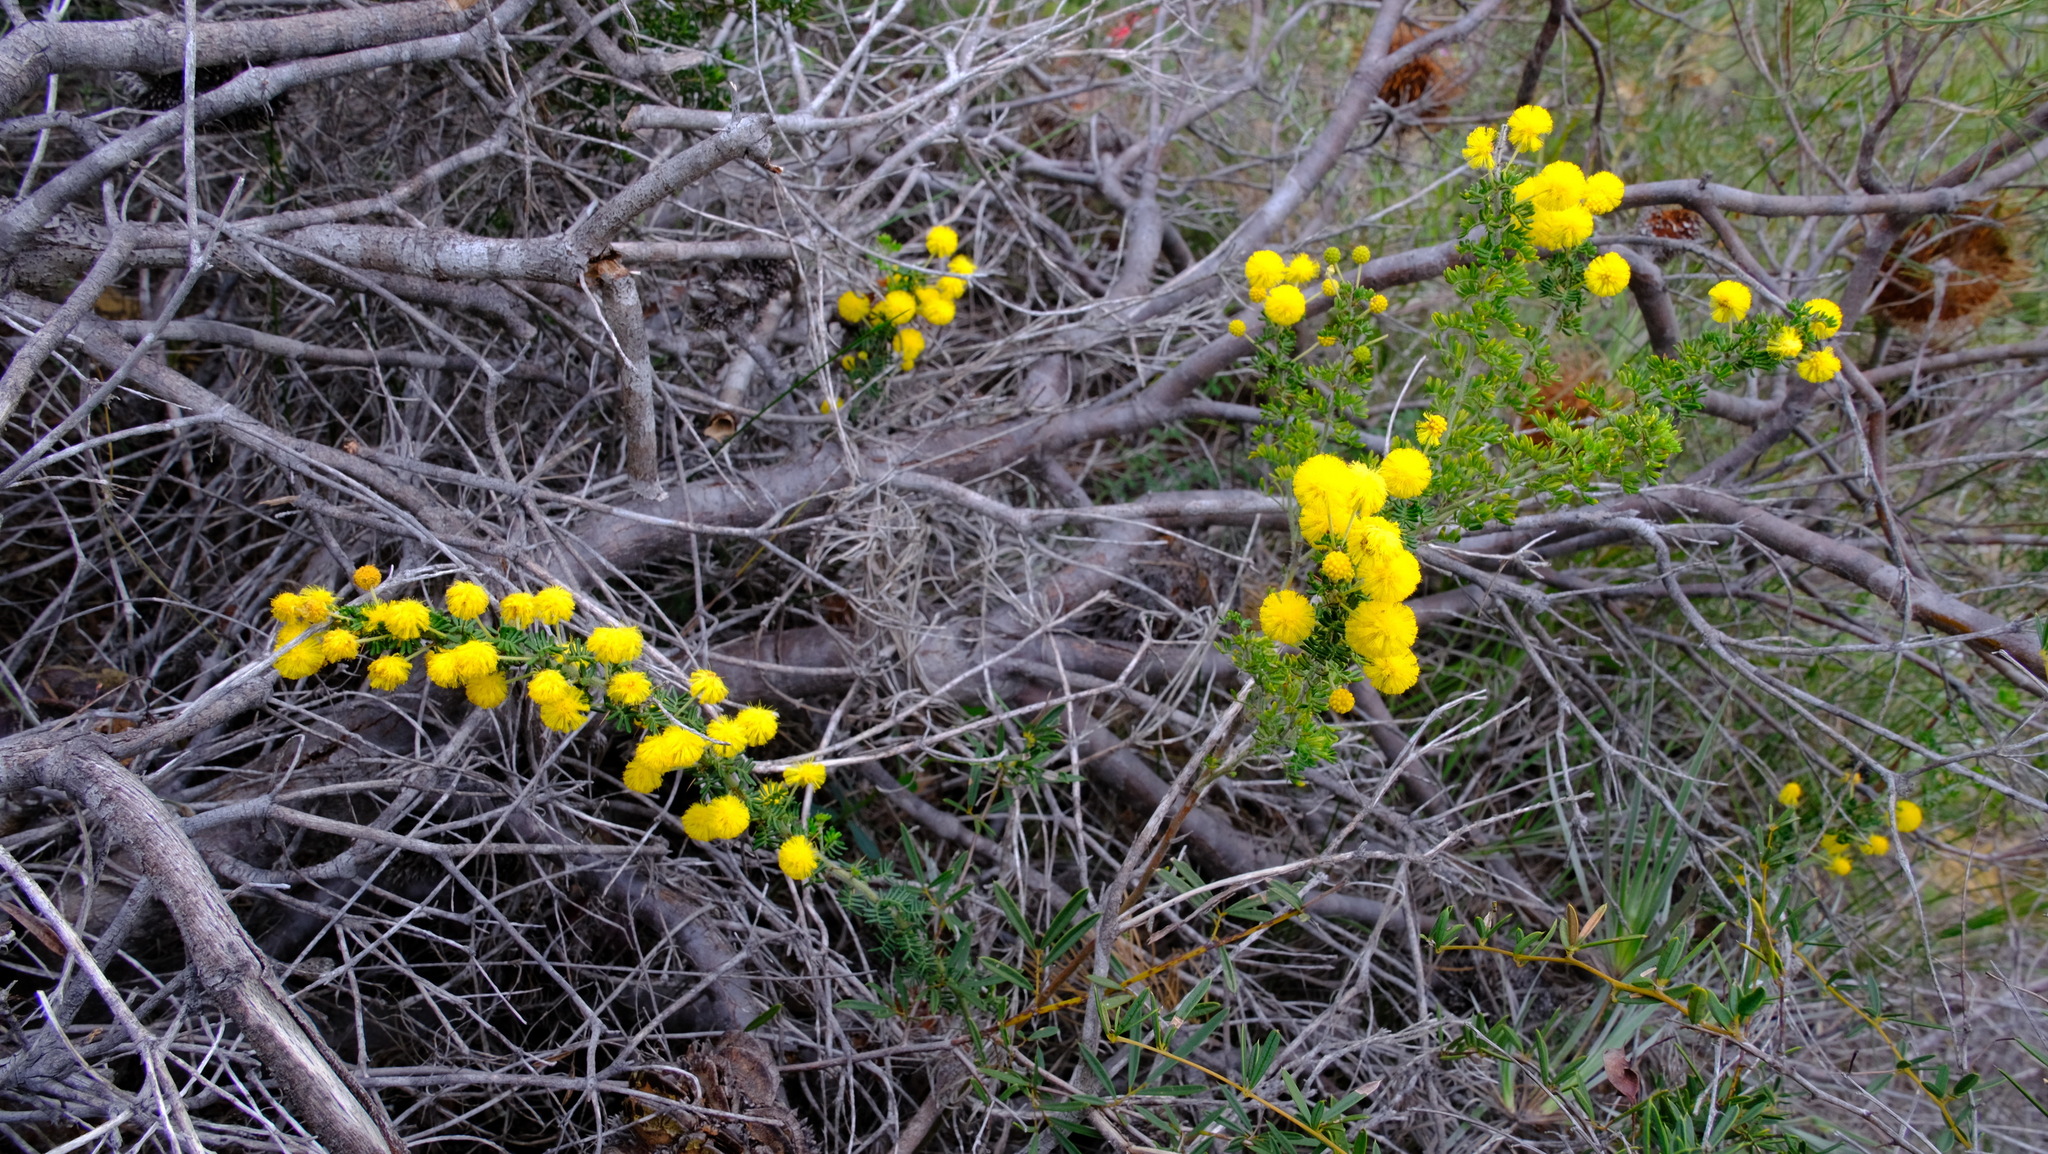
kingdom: Plantae
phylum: Tracheophyta
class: Magnoliopsida
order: Fabales
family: Fabaceae
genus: Acacia
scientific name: Acacia lasiocarpa
